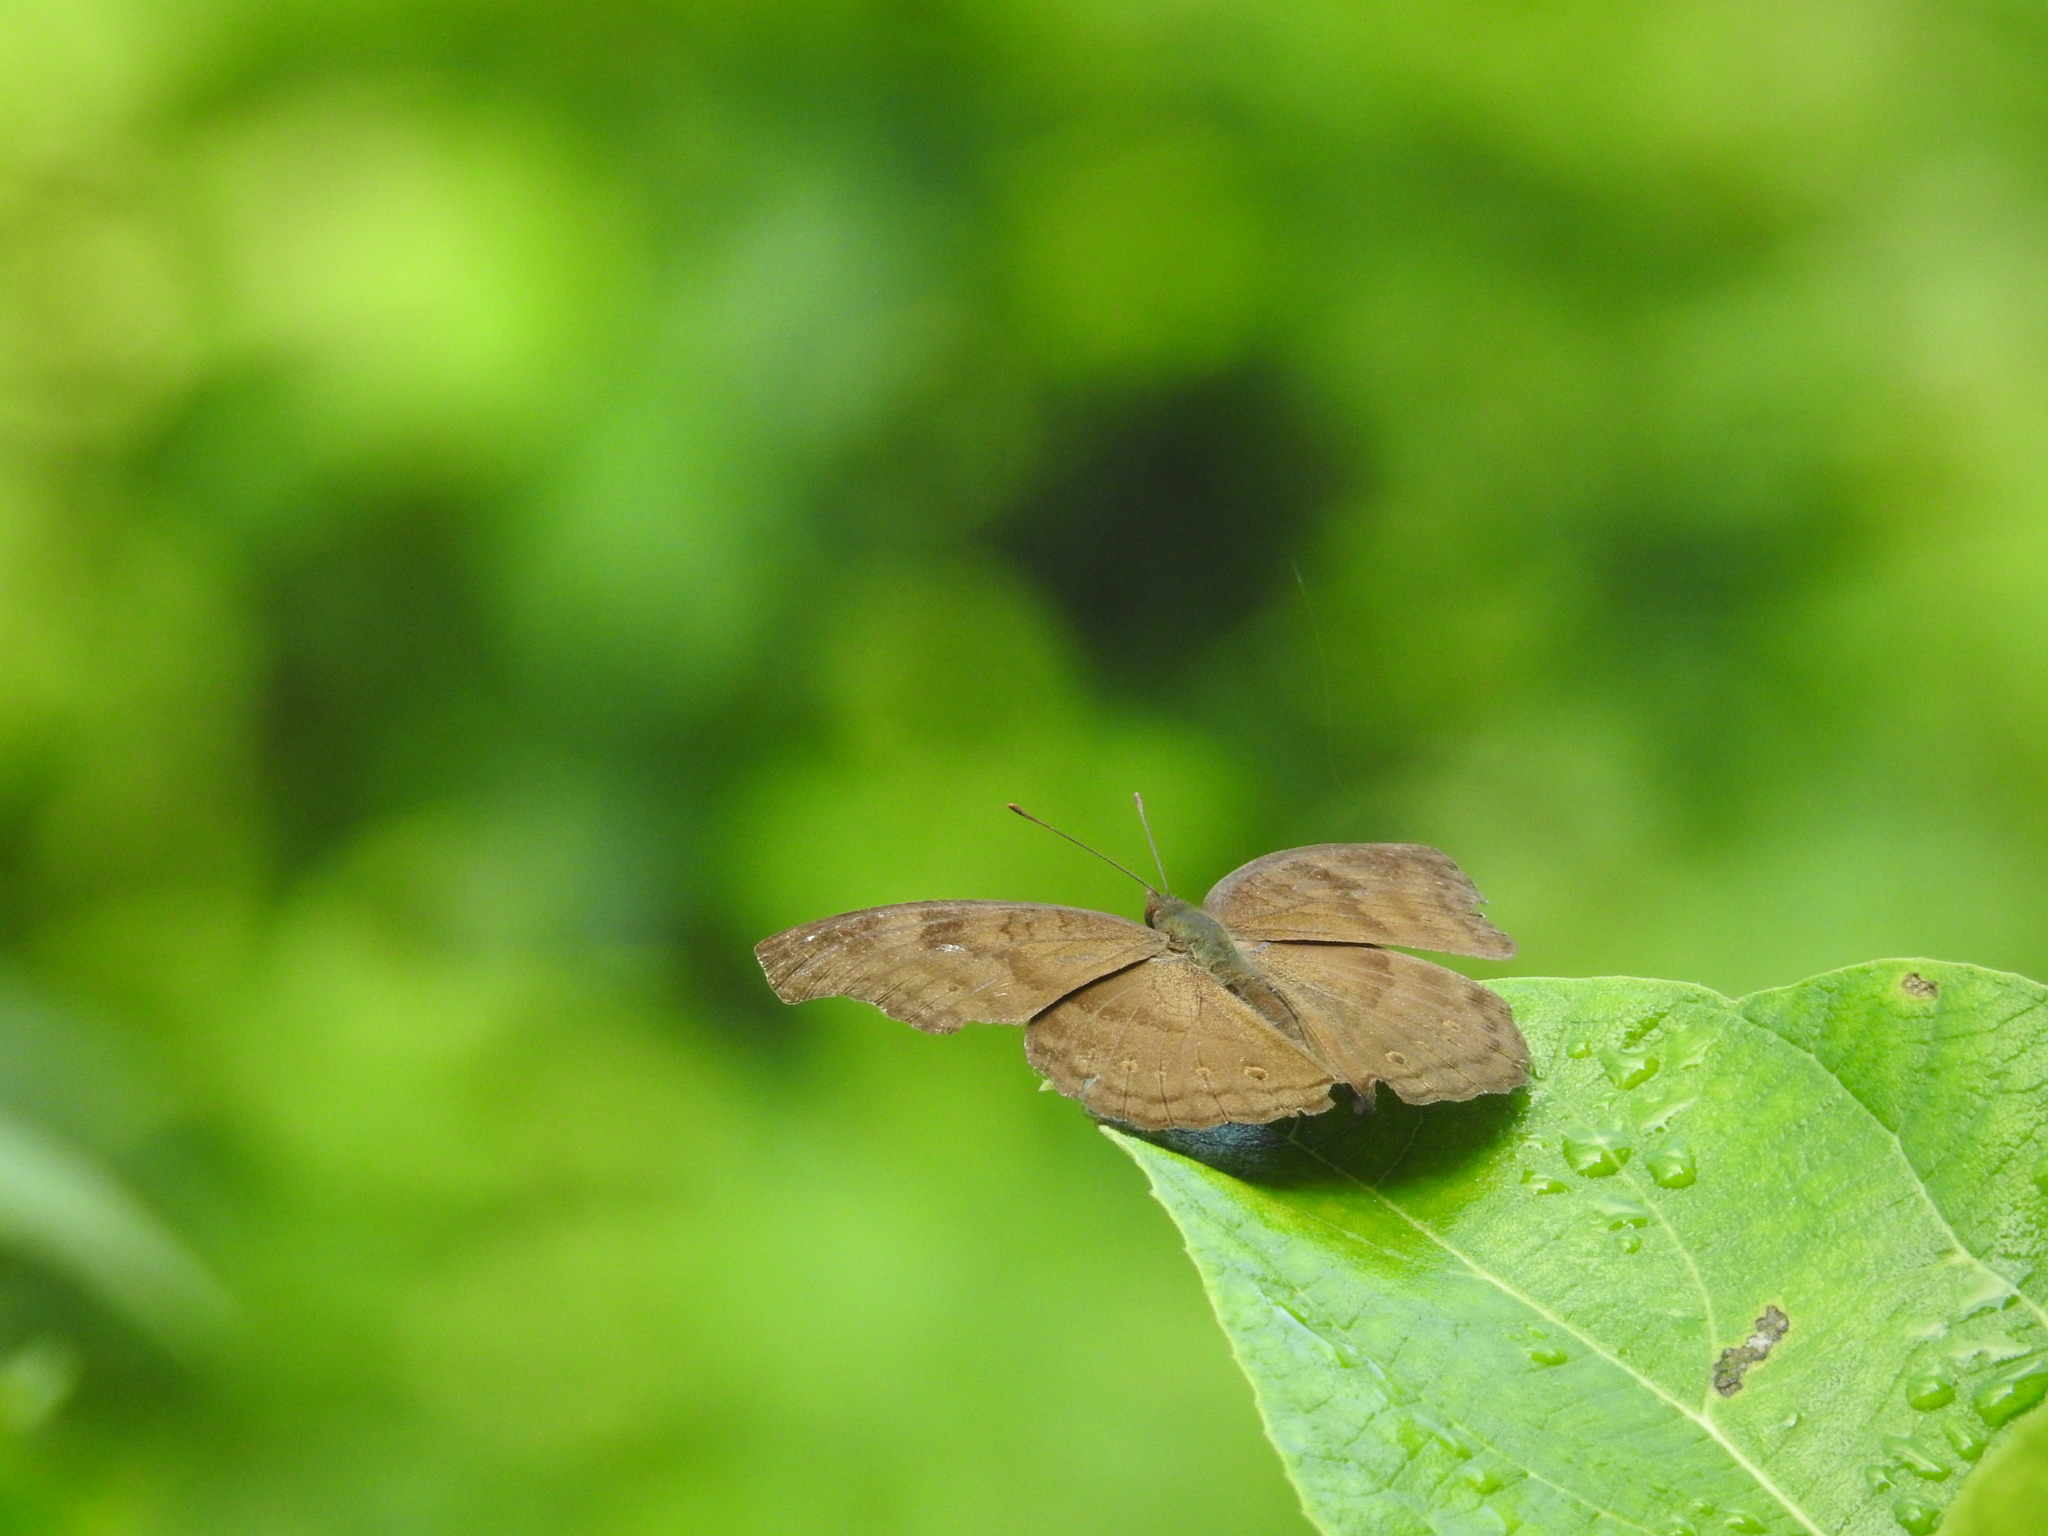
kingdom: Animalia
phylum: Arthropoda
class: Insecta
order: Lepidoptera
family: Nymphalidae
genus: Junonia
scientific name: Junonia iphita
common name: Chocolate pansy
